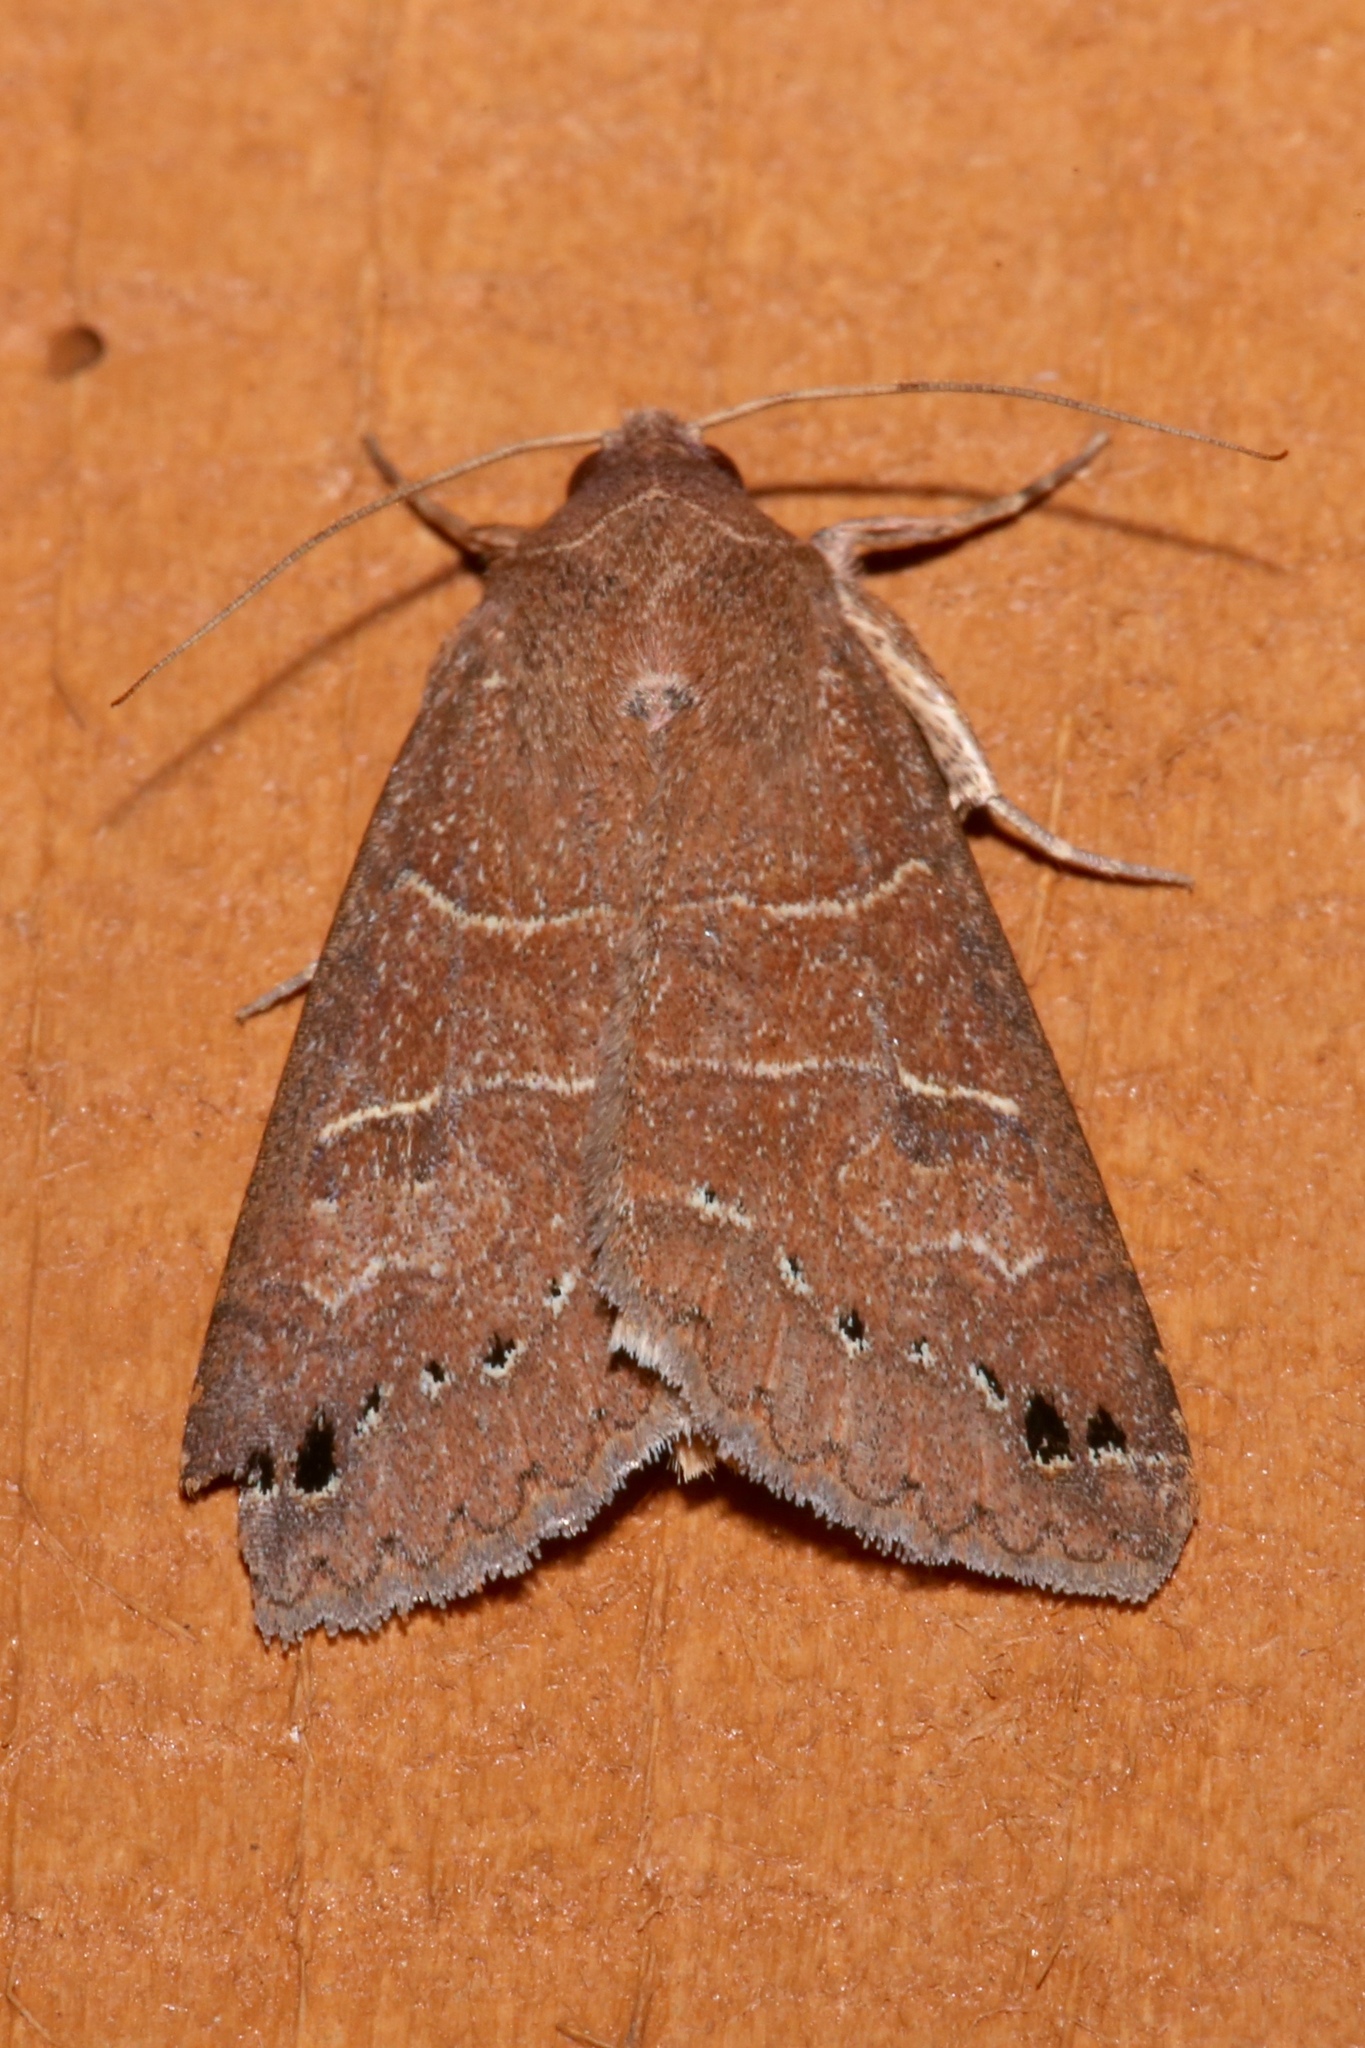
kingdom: Animalia
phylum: Arthropoda
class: Insecta
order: Lepidoptera
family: Erebidae
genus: Cissusa
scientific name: Cissusa spadix
